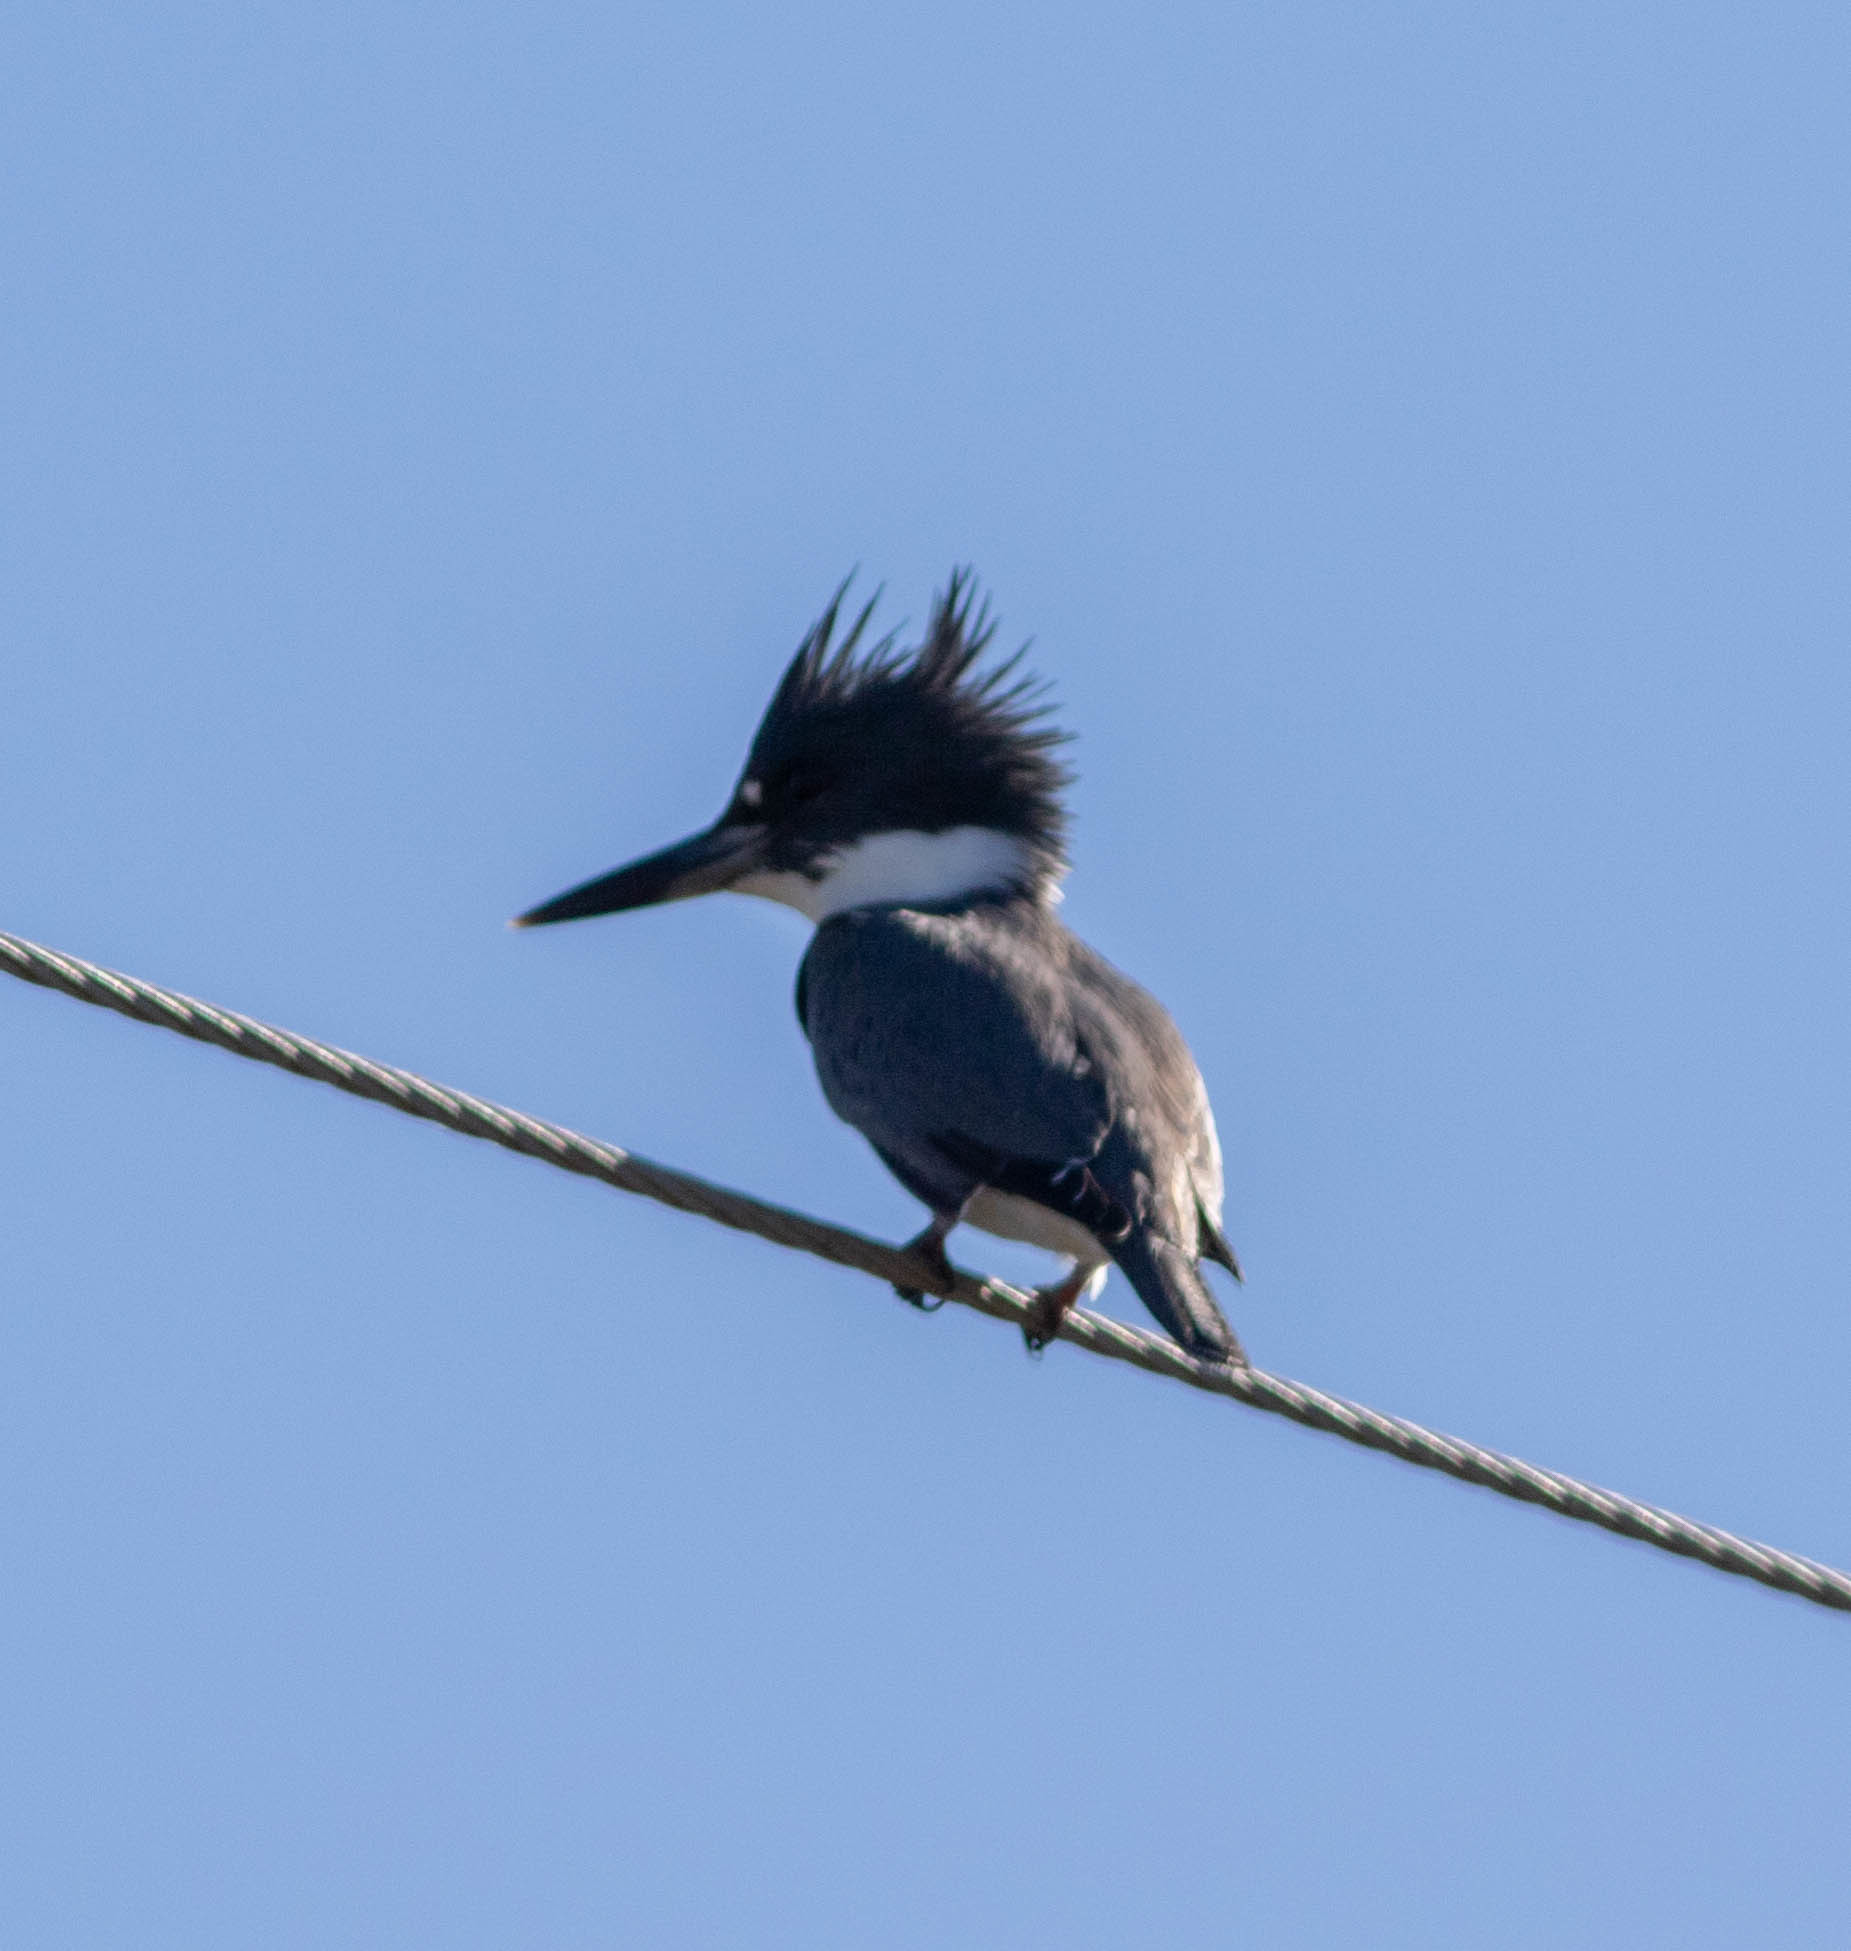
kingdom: Animalia
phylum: Chordata
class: Aves
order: Coraciiformes
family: Alcedinidae
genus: Megaceryle
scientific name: Megaceryle alcyon
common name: Belted kingfisher
